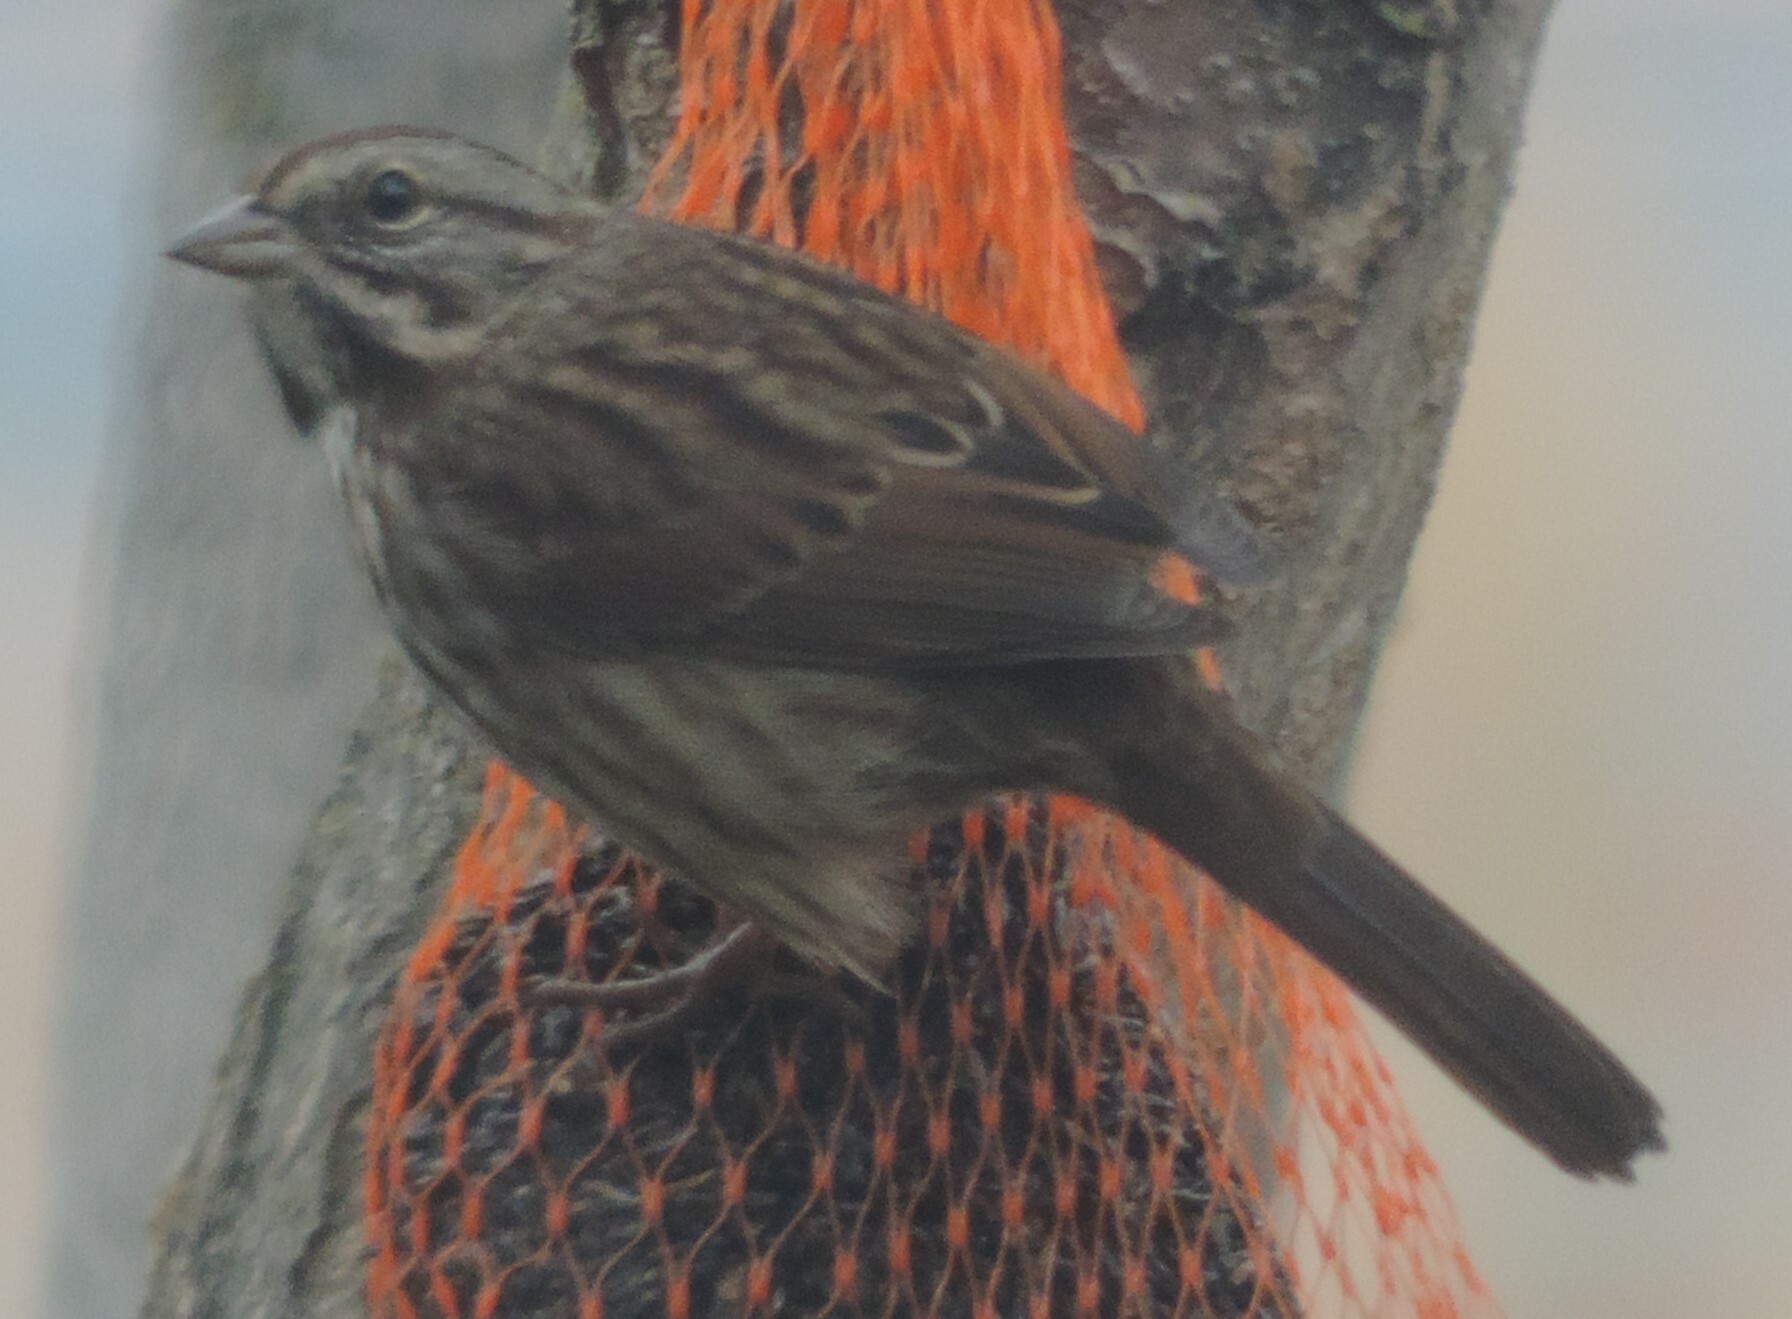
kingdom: Animalia
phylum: Chordata
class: Aves
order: Passeriformes
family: Passerellidae
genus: Melospiza
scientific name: Melospiza melodia
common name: Song sparrow
